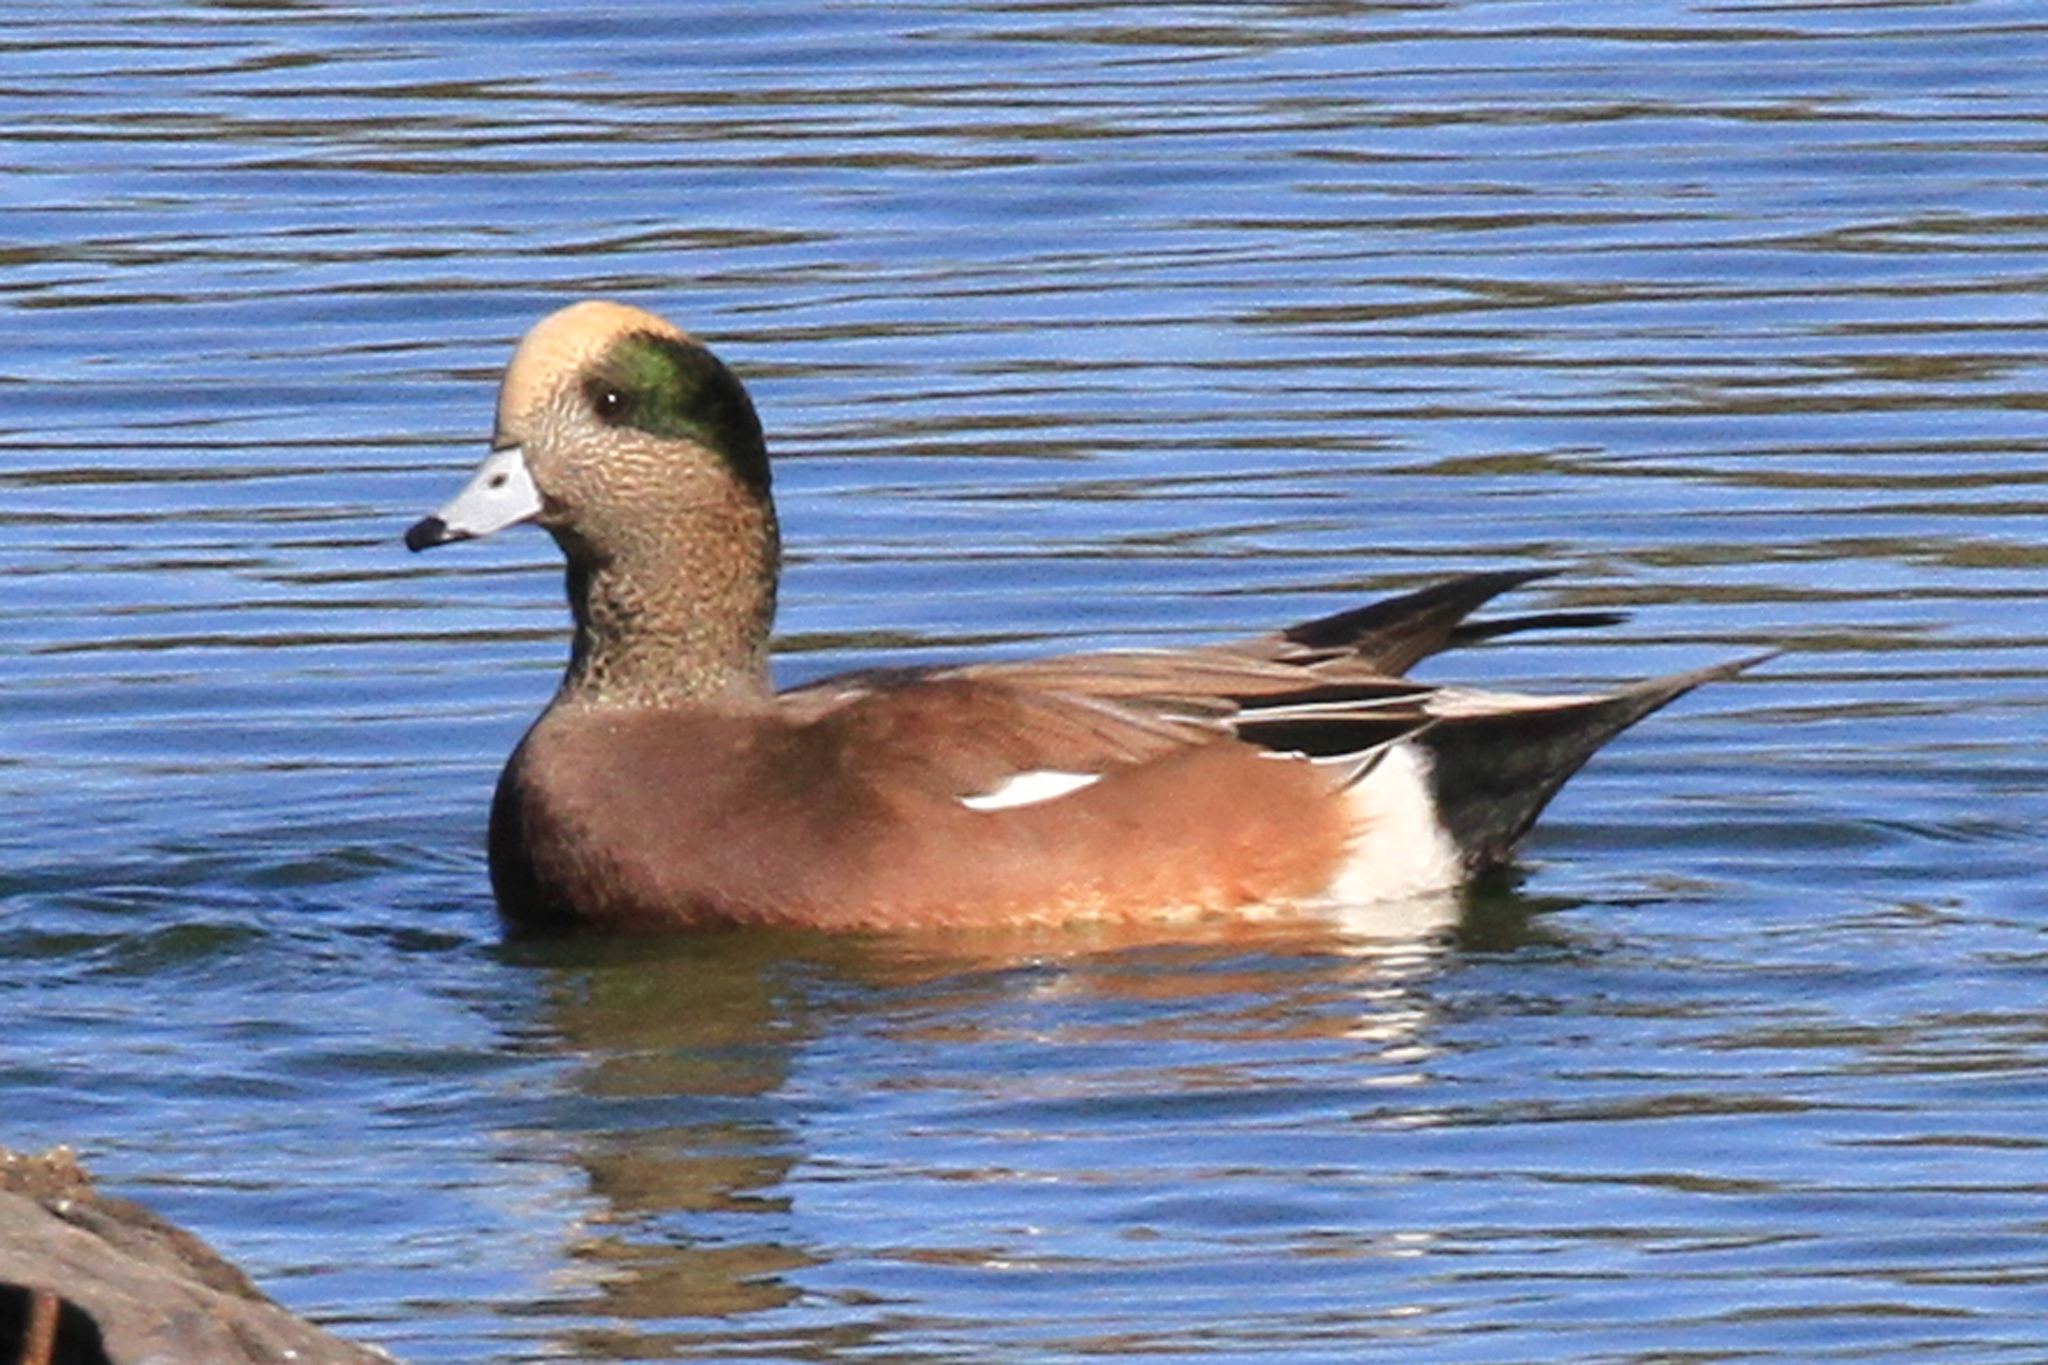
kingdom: Animalia
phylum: Chordata
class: Aves
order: Anseriformes
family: Anatidae
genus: Mareca
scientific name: Mareca americana
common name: American wigeon
